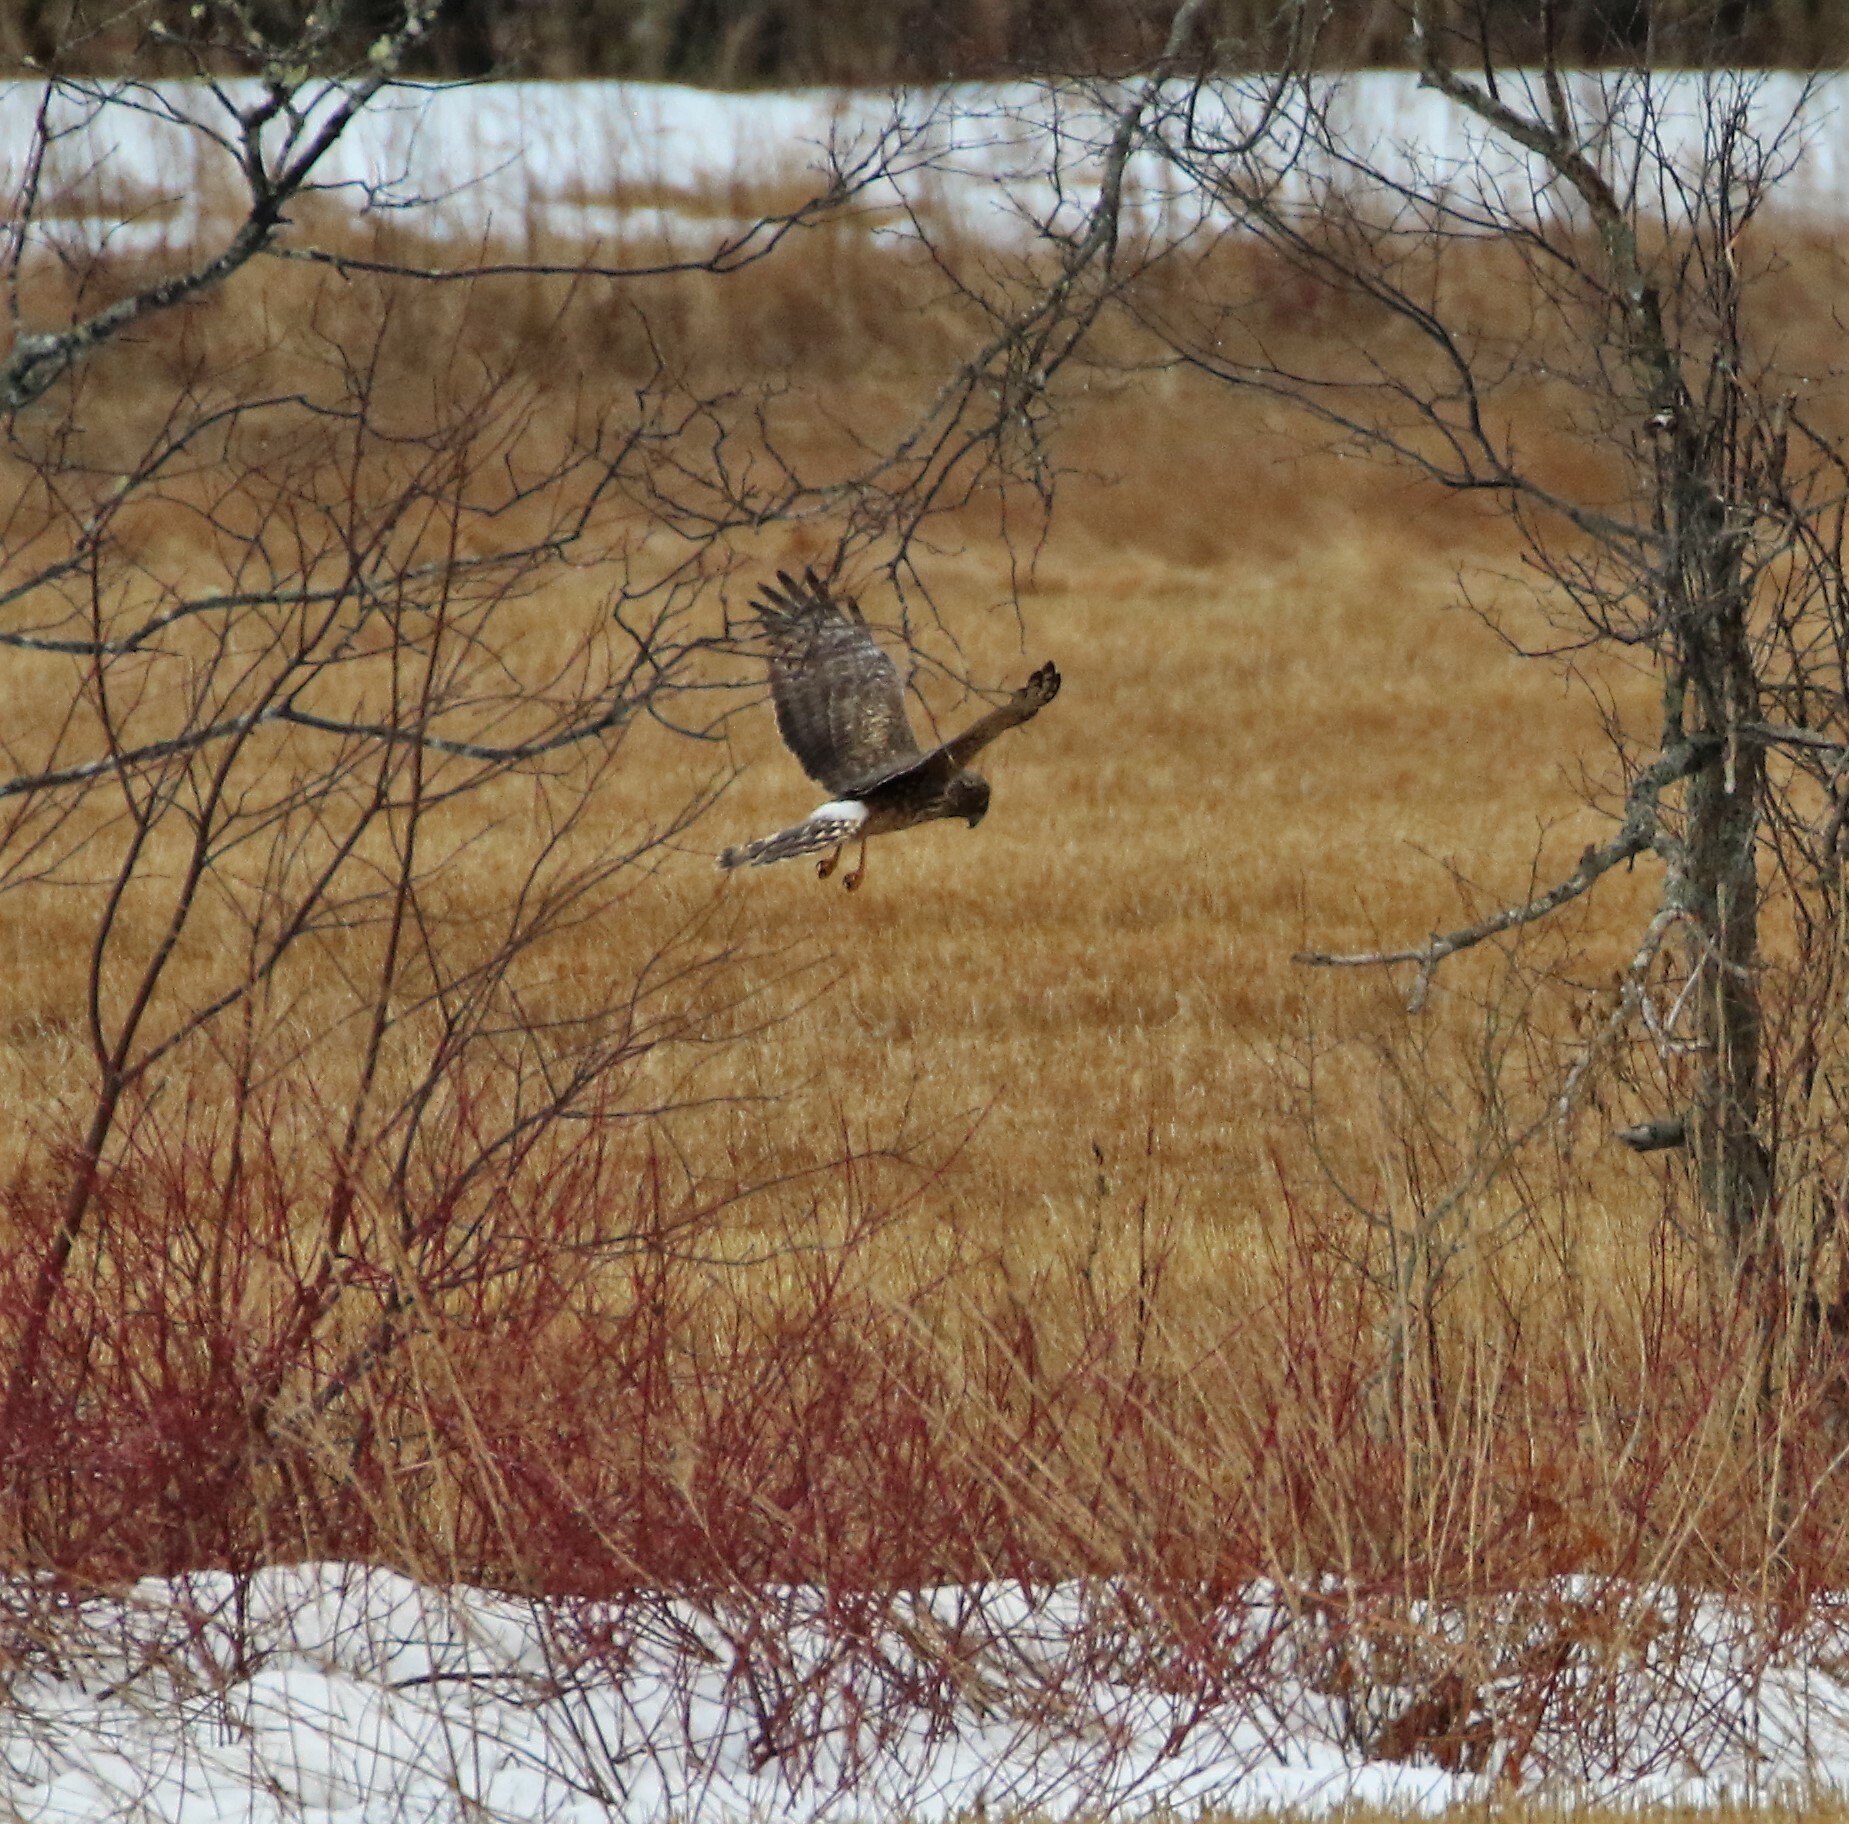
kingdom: Animalia
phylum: Chordata
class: Aves
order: Accipitriformes
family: Accipitridae
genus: Circus
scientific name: Circus cyaneus
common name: Hen harrier
